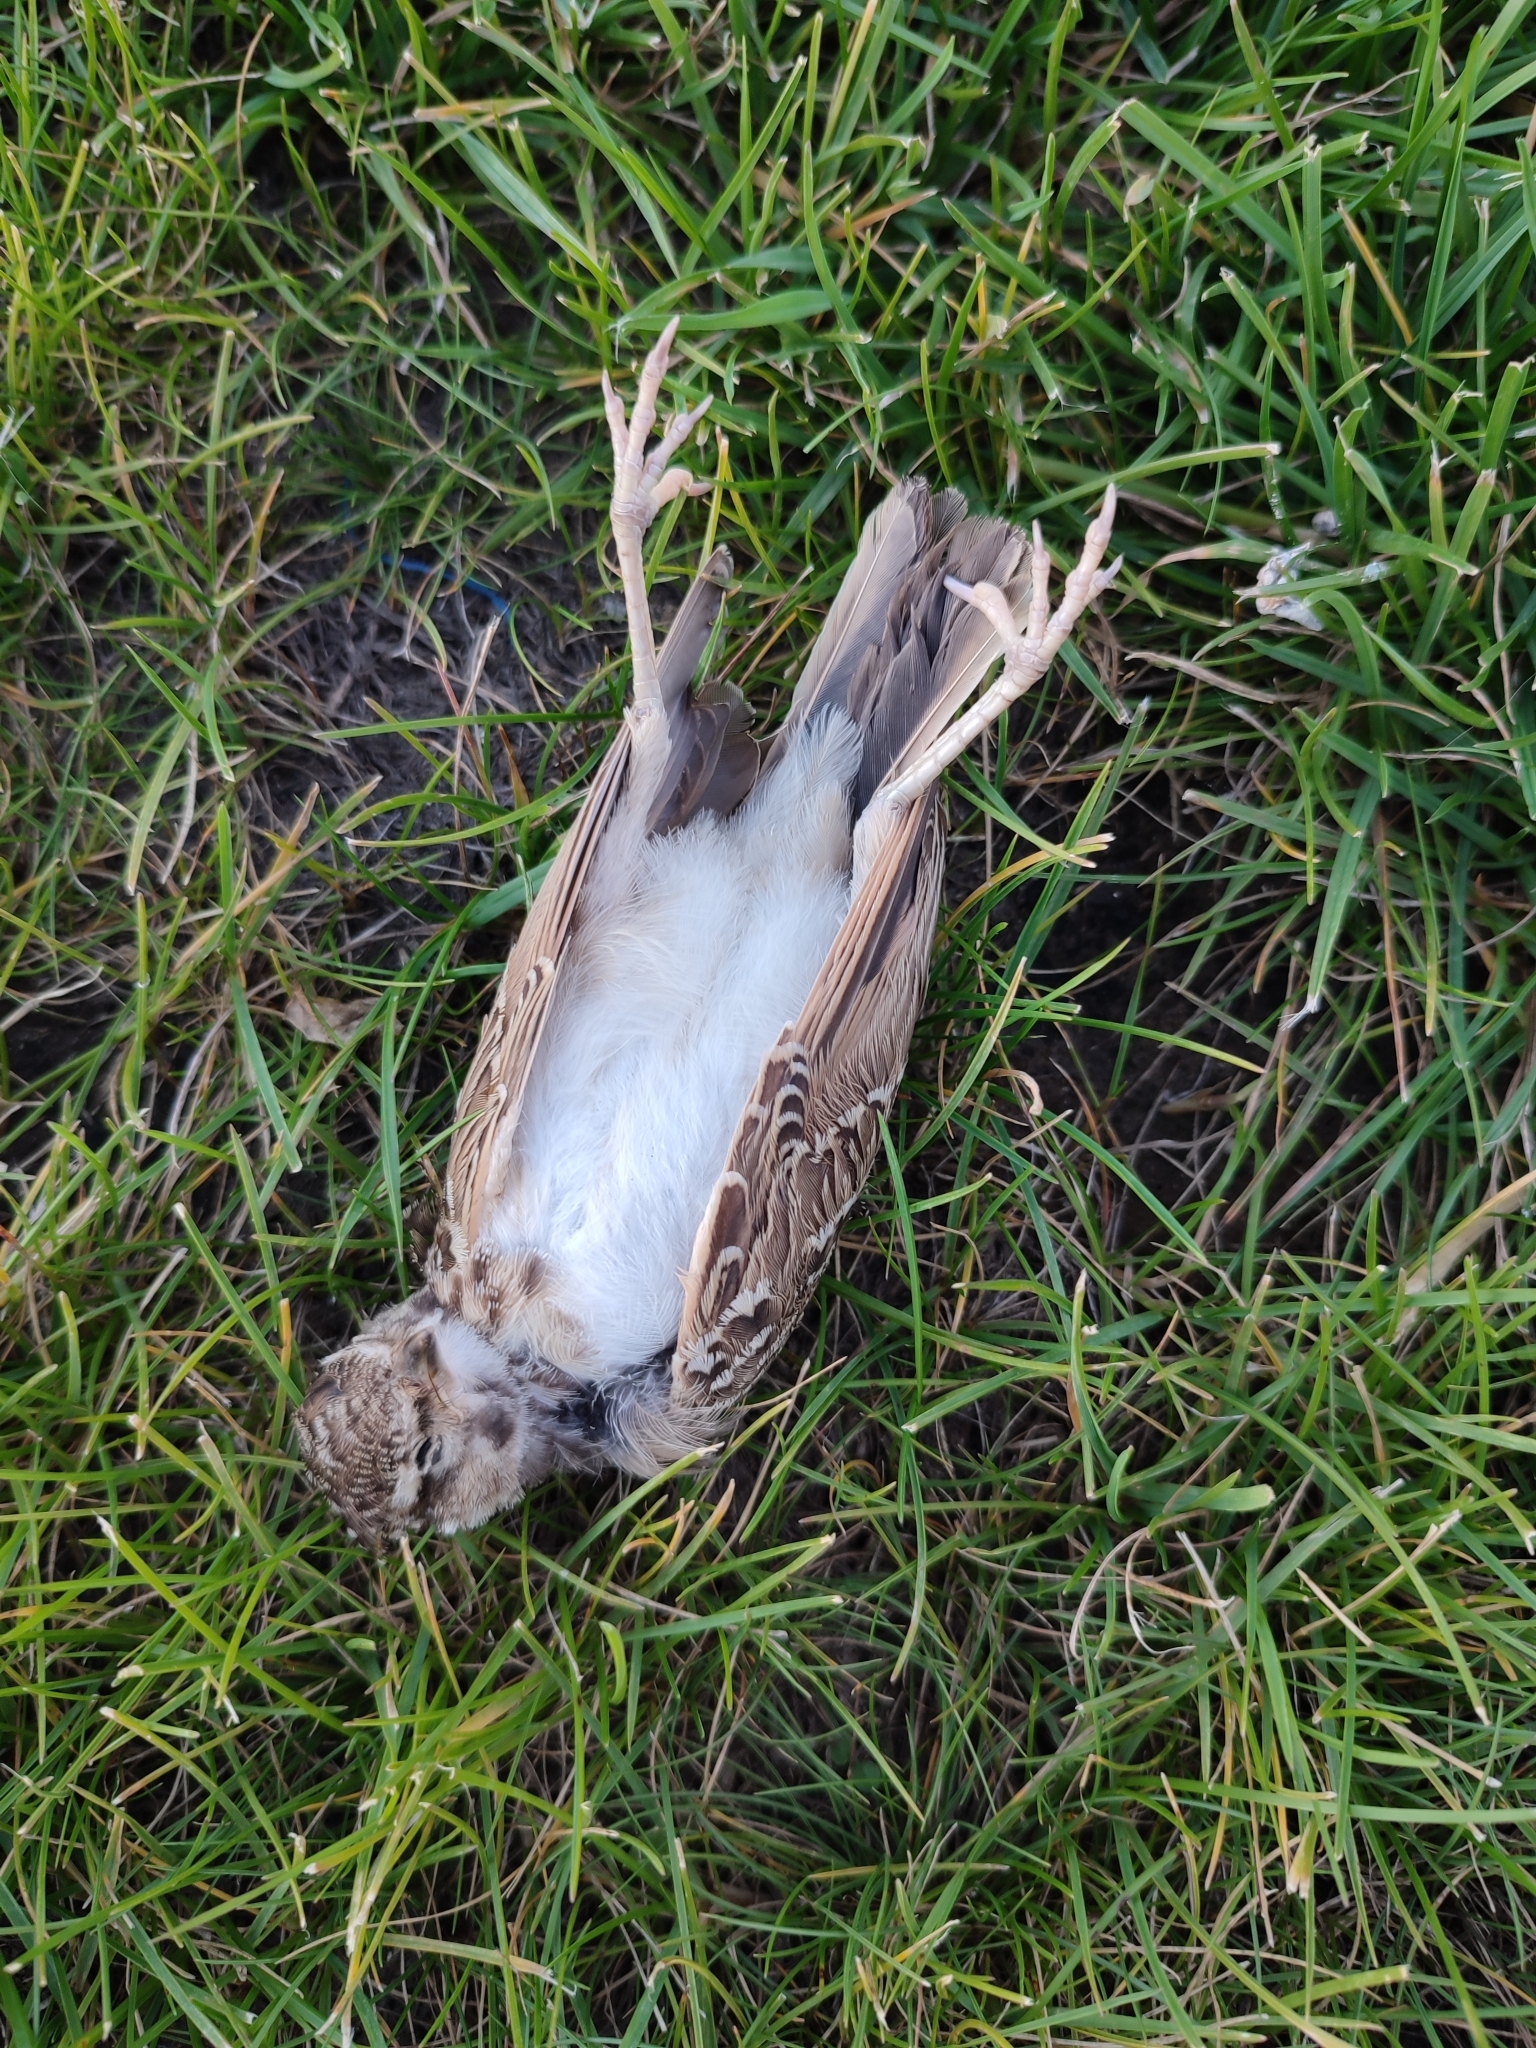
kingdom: Animalia
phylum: Chordata
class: Aves
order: Passeriformes
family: Alaudidae
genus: Galerida
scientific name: Galerida cristata
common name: Crested lark
